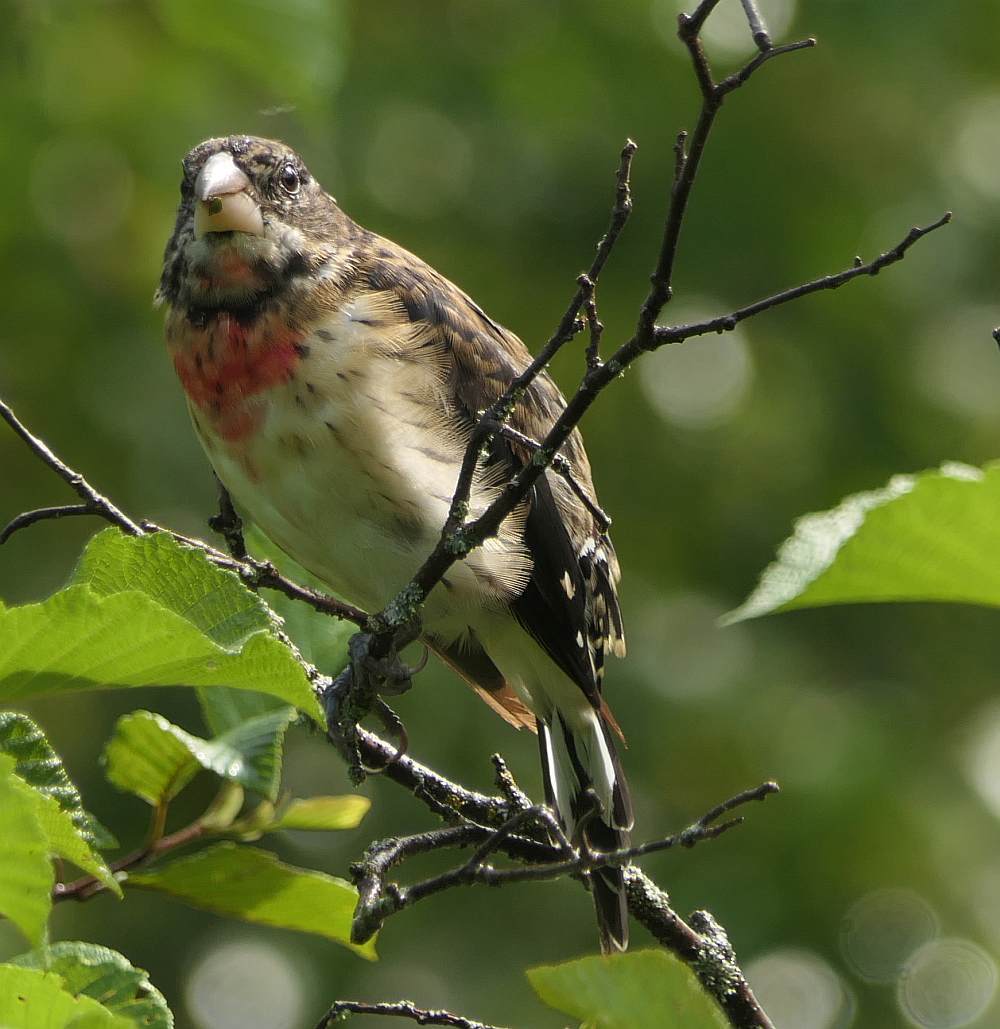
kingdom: Animalia
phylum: Chordata
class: Aves
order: Passeriformes
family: Cardinalidae
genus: Pheucticus
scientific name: Pheucticus ludovicianus
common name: Rose-breasted grosbeak
